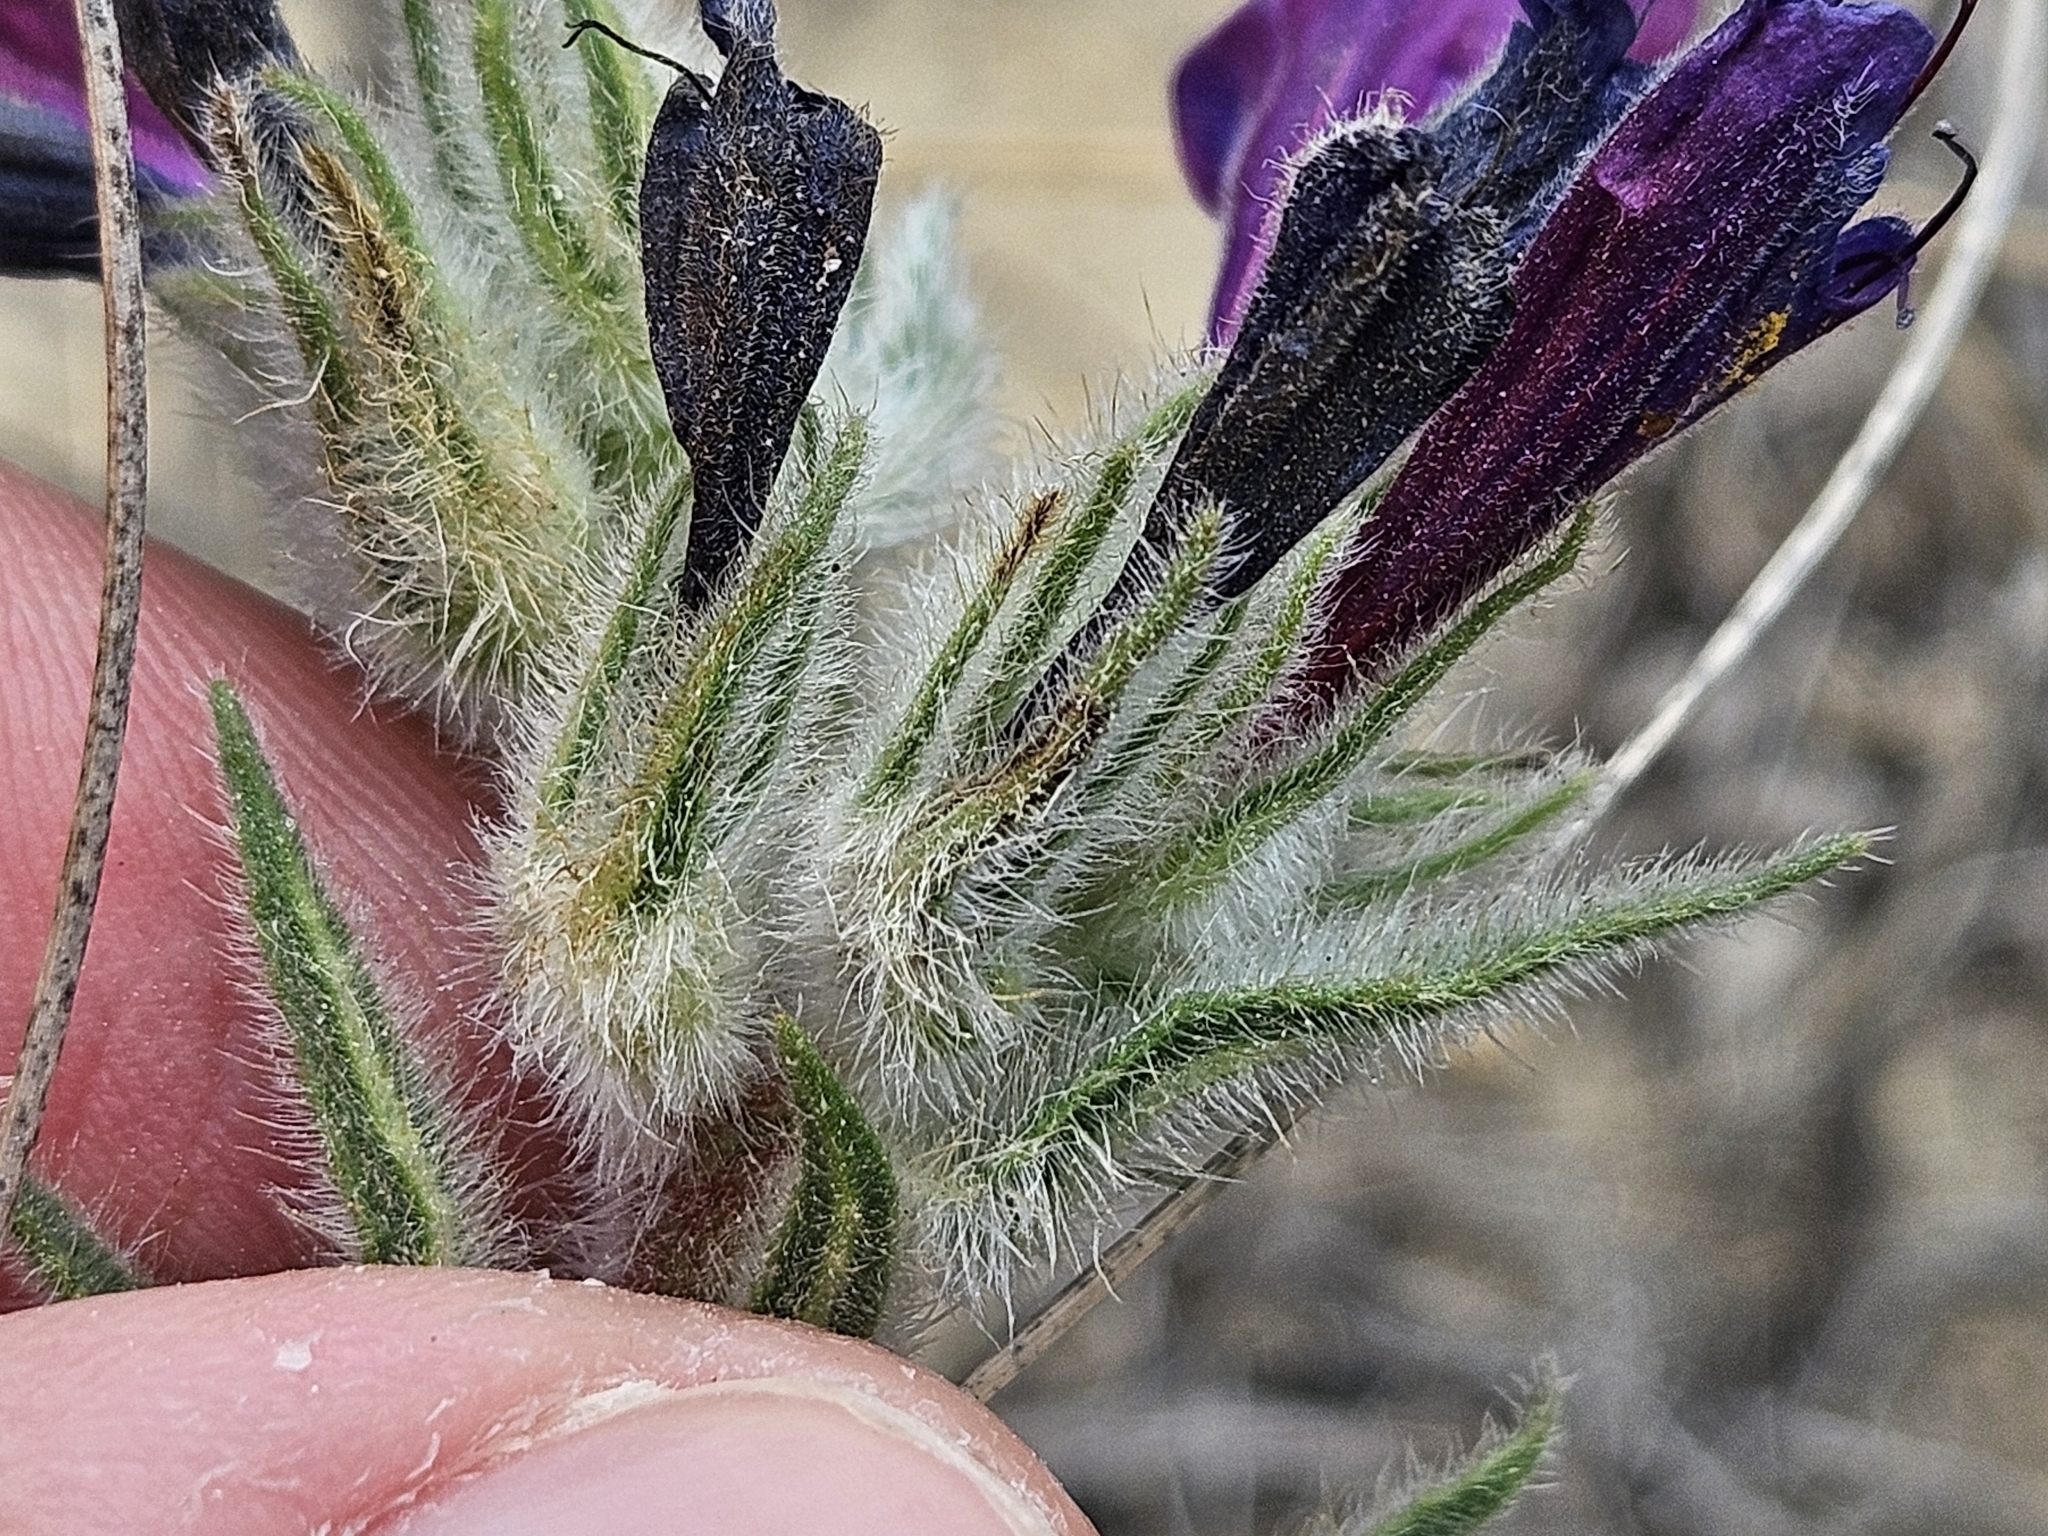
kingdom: Plantae
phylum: Tracheophyta
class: Magnoliopsida
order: Boraginales
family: Boraginaceae
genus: Echium
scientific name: Echium sabulicola
